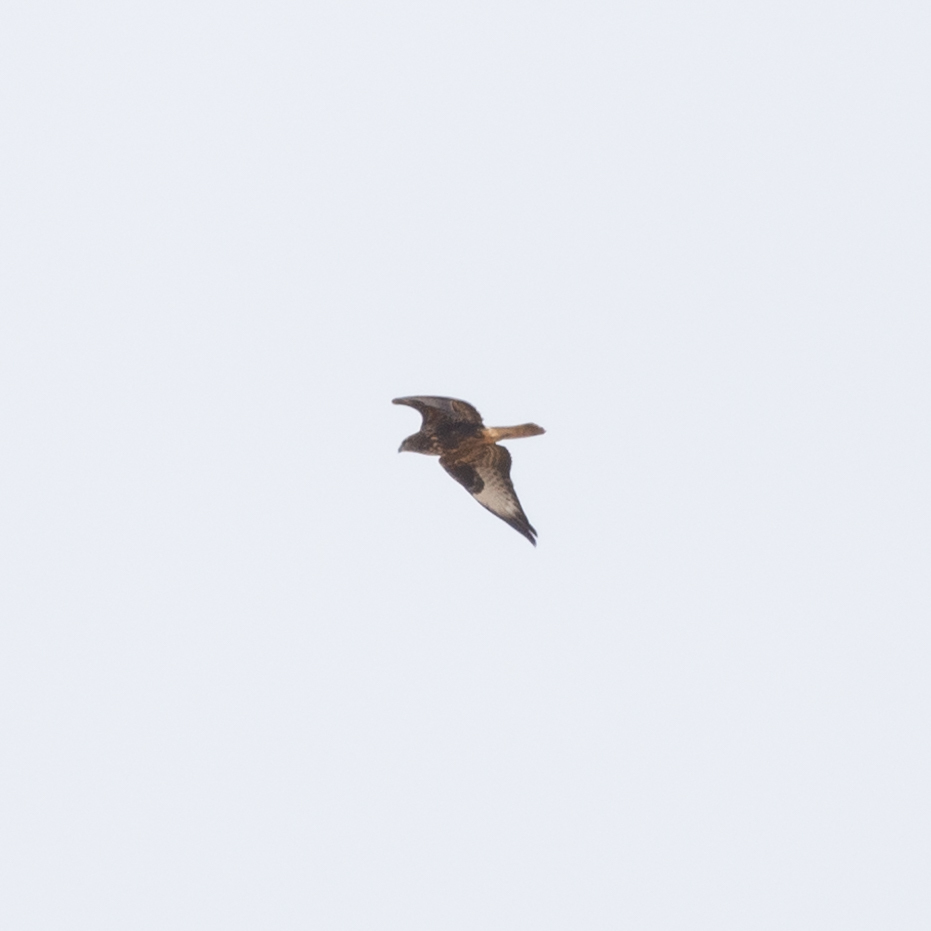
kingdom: Animalia
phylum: Chordata
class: Aves
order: Accipitriformes
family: Accipitridae
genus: Buteo
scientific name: Buteo buteo
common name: Common buzzard
